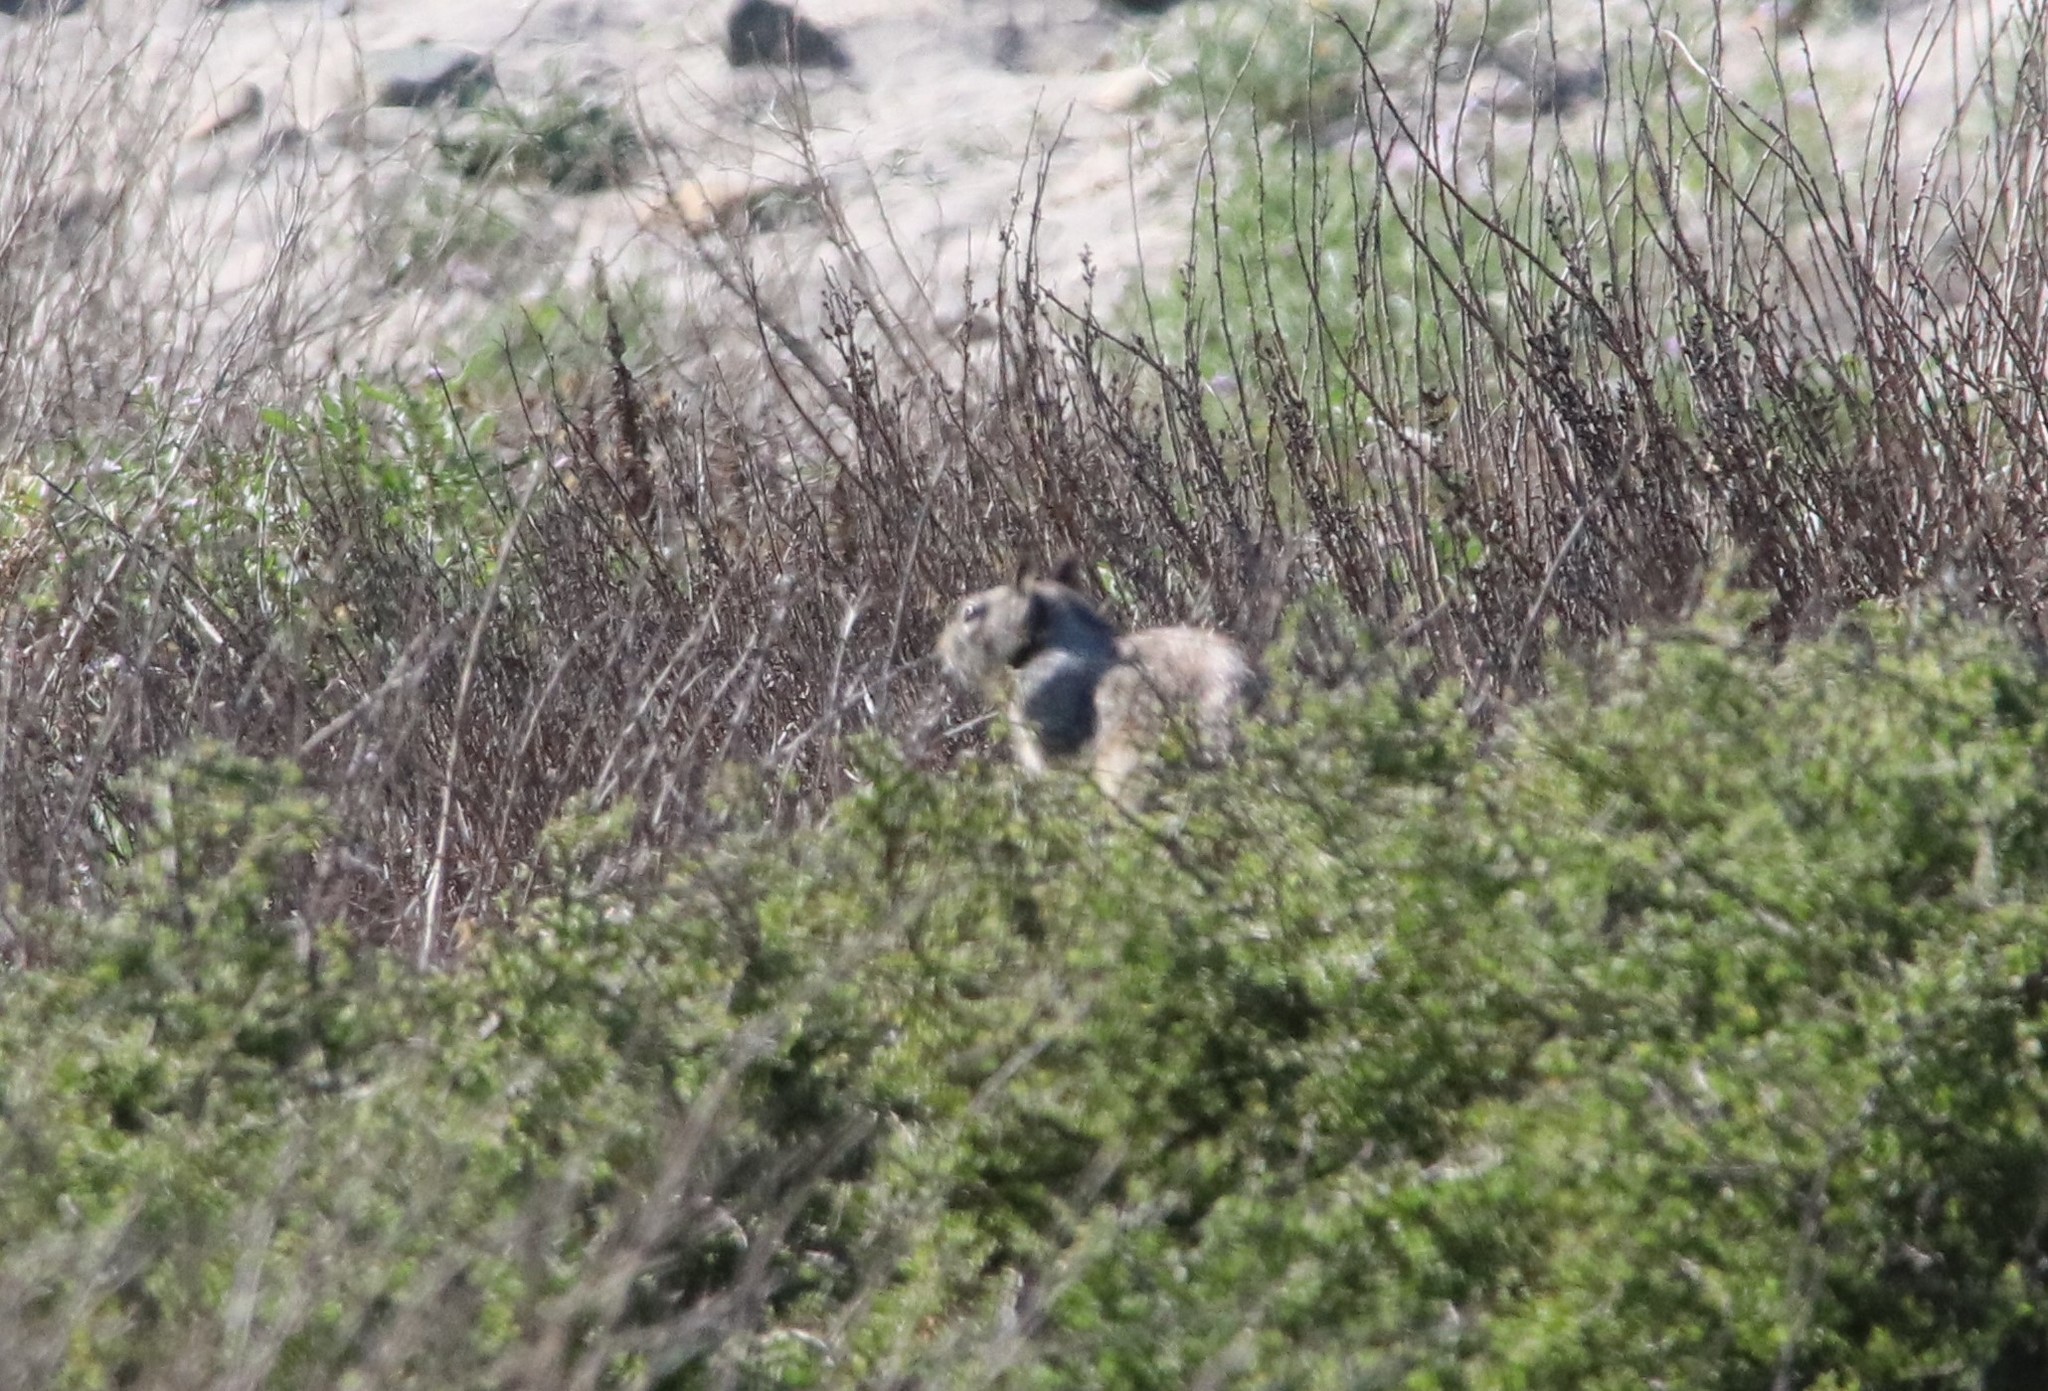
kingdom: Animalia
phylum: Chordata
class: Mammalia
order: Rodentia
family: Sciuridae
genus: Otospermophilus
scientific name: Otospermophilus beecheyi
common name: California ground squirrel
